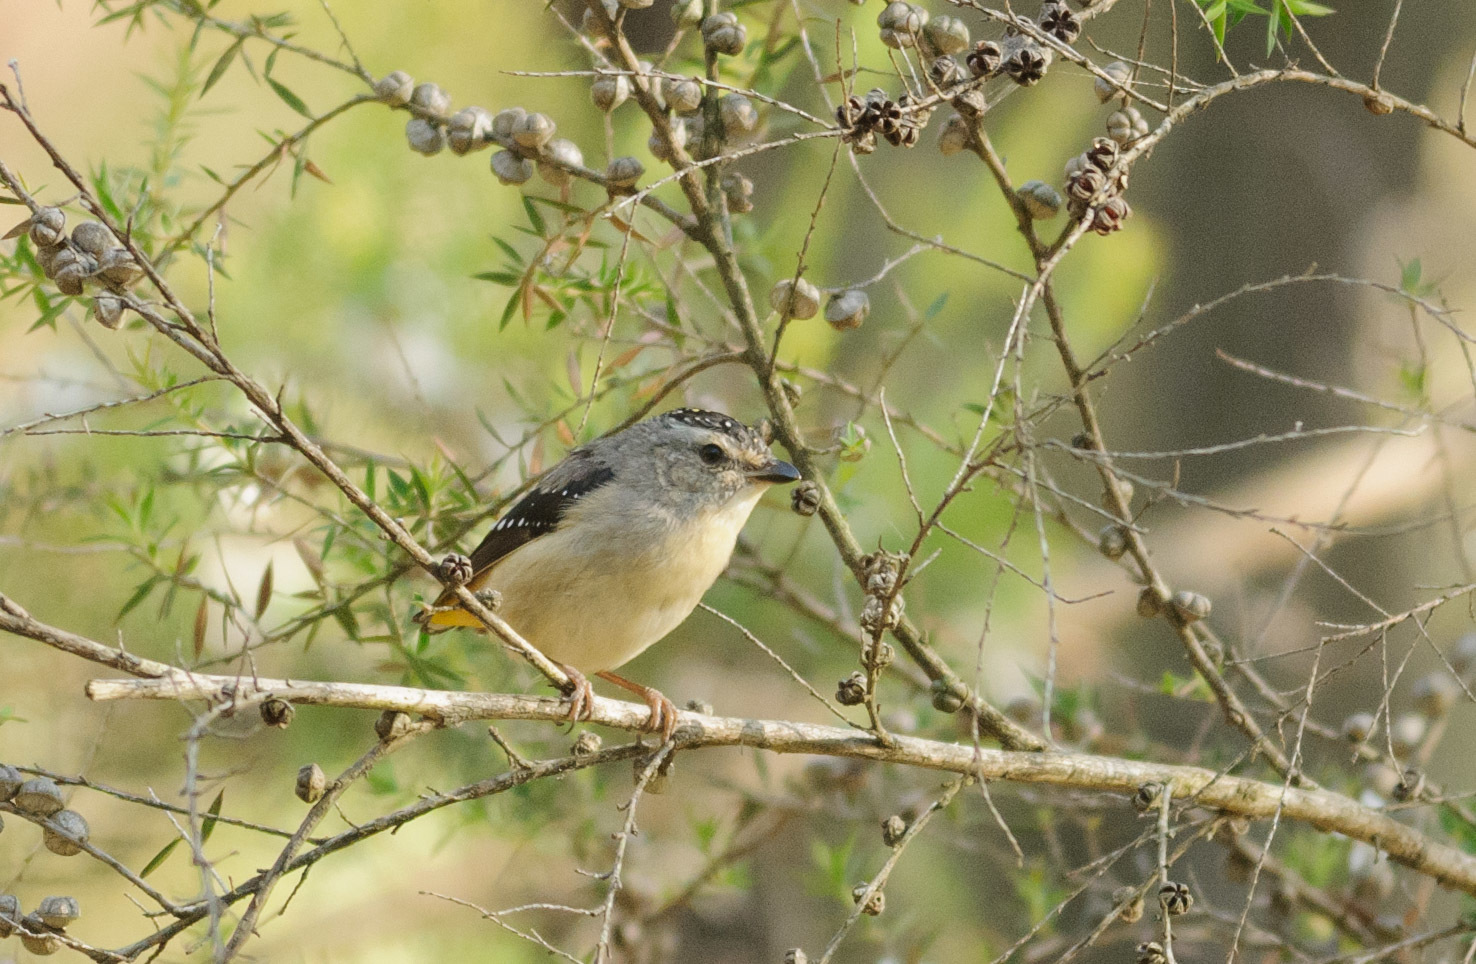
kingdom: Animalia
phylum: Chordata
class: Aves
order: Passeriformes
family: Pardalotidae
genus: Pardalotus
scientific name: Pardalotus punctatus
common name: Spotted pardalote
